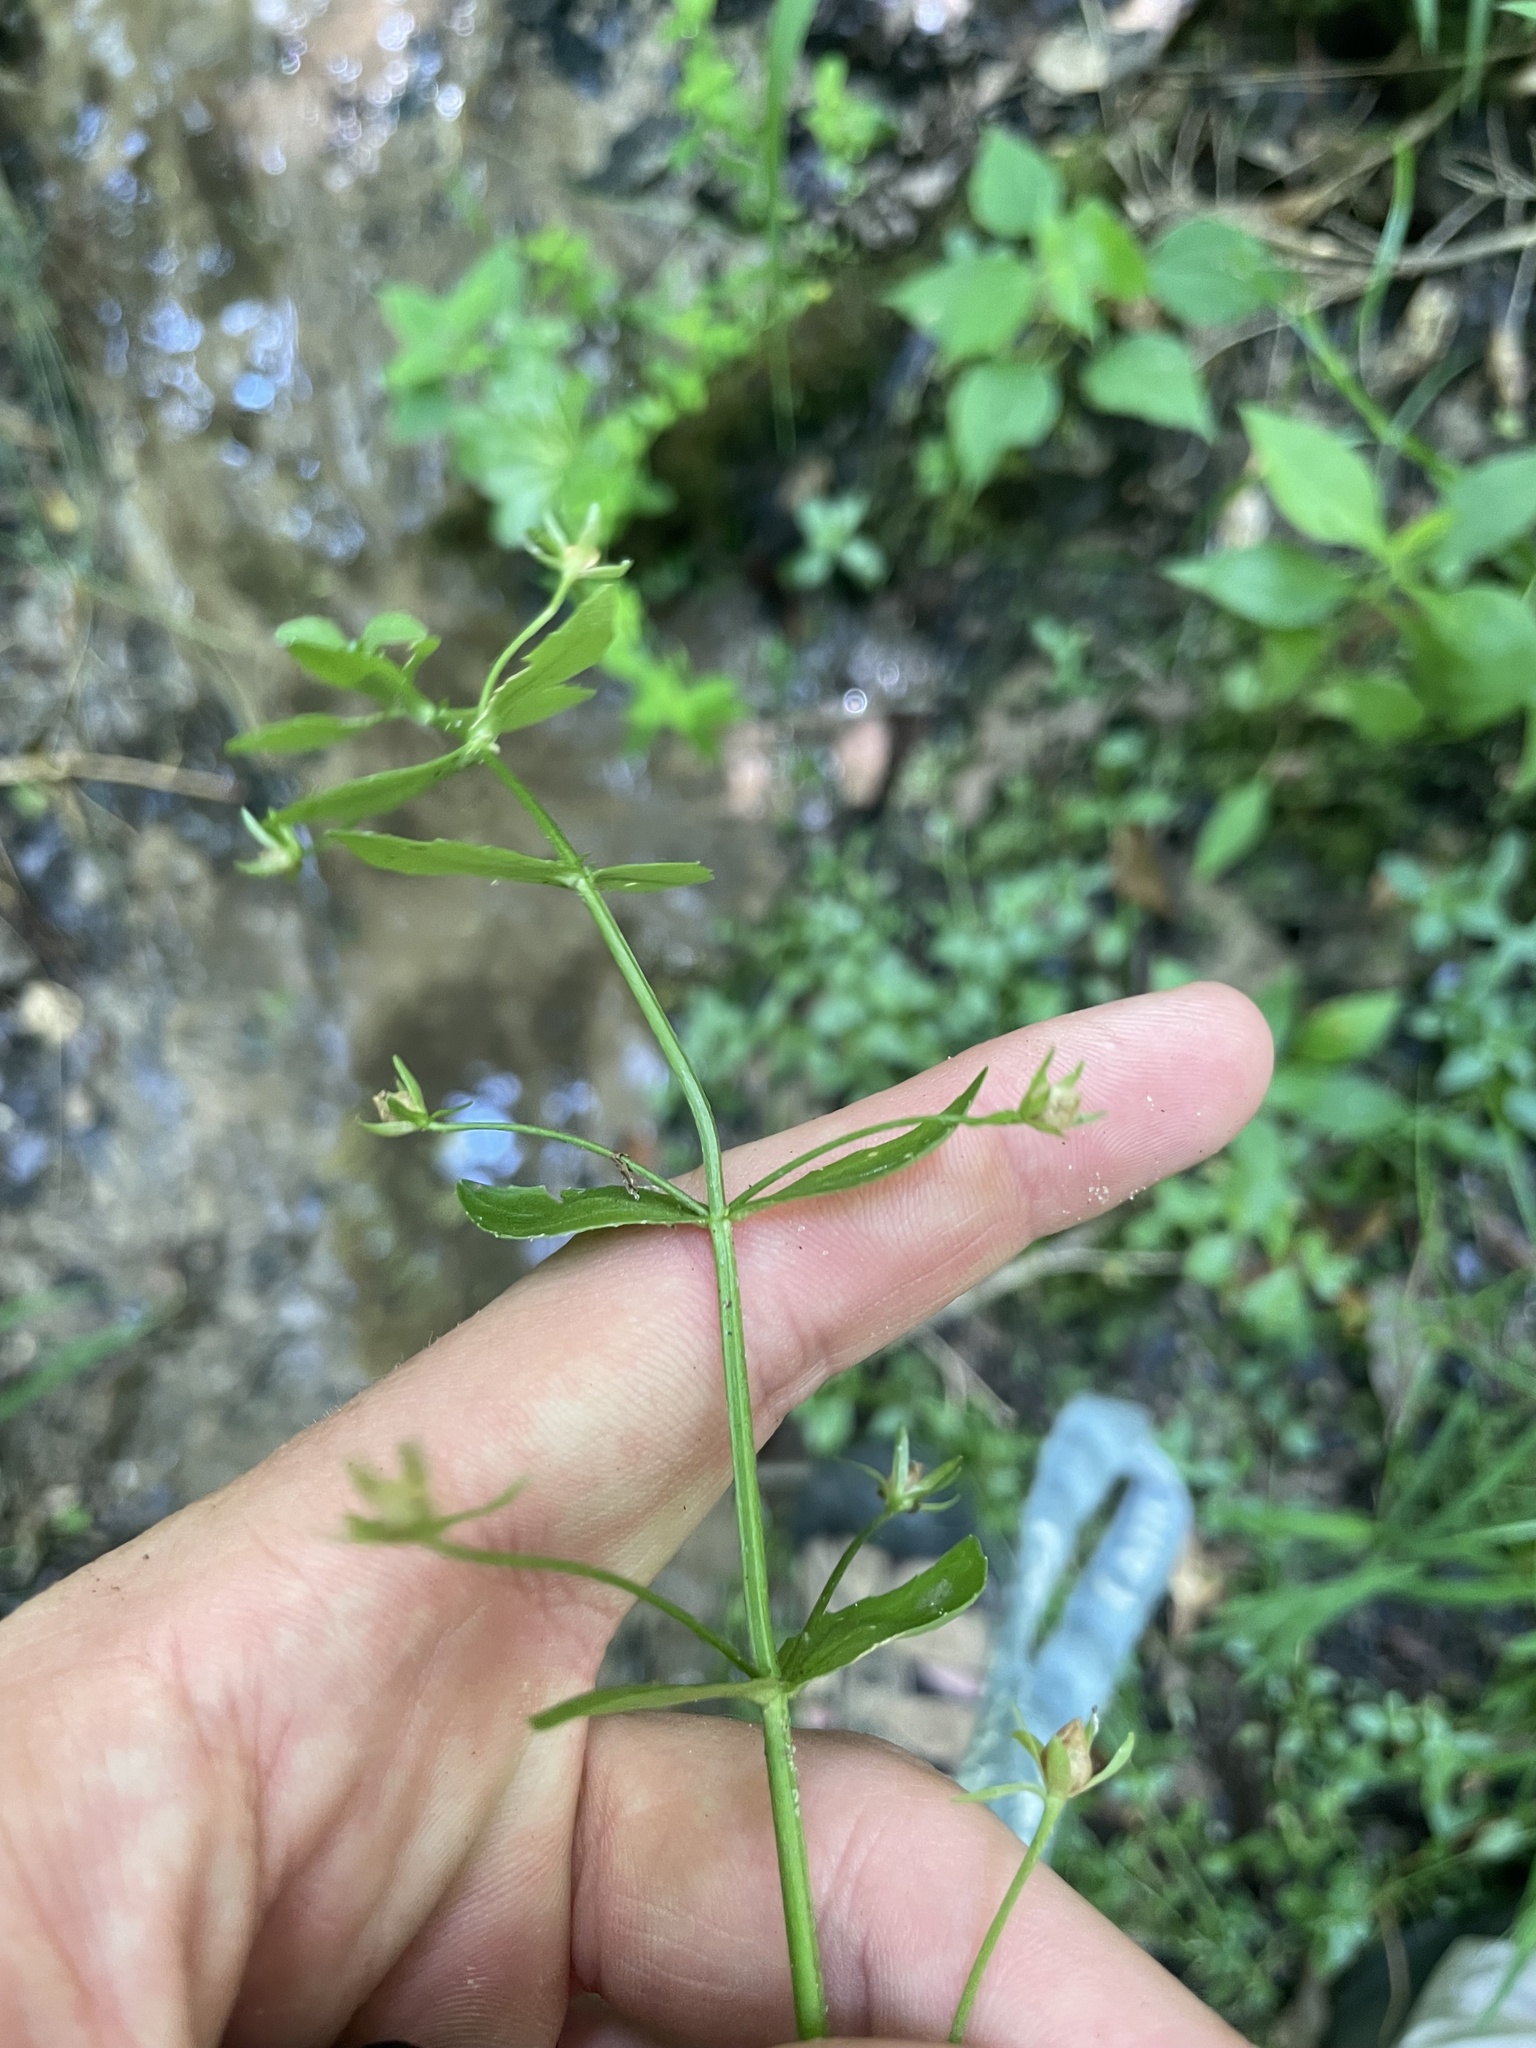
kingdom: Plantae
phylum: Tracheophyta
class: Magnoliopsida
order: Lamiales
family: Plantaginaceae
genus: Gratiola
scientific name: Gratiola floridana
